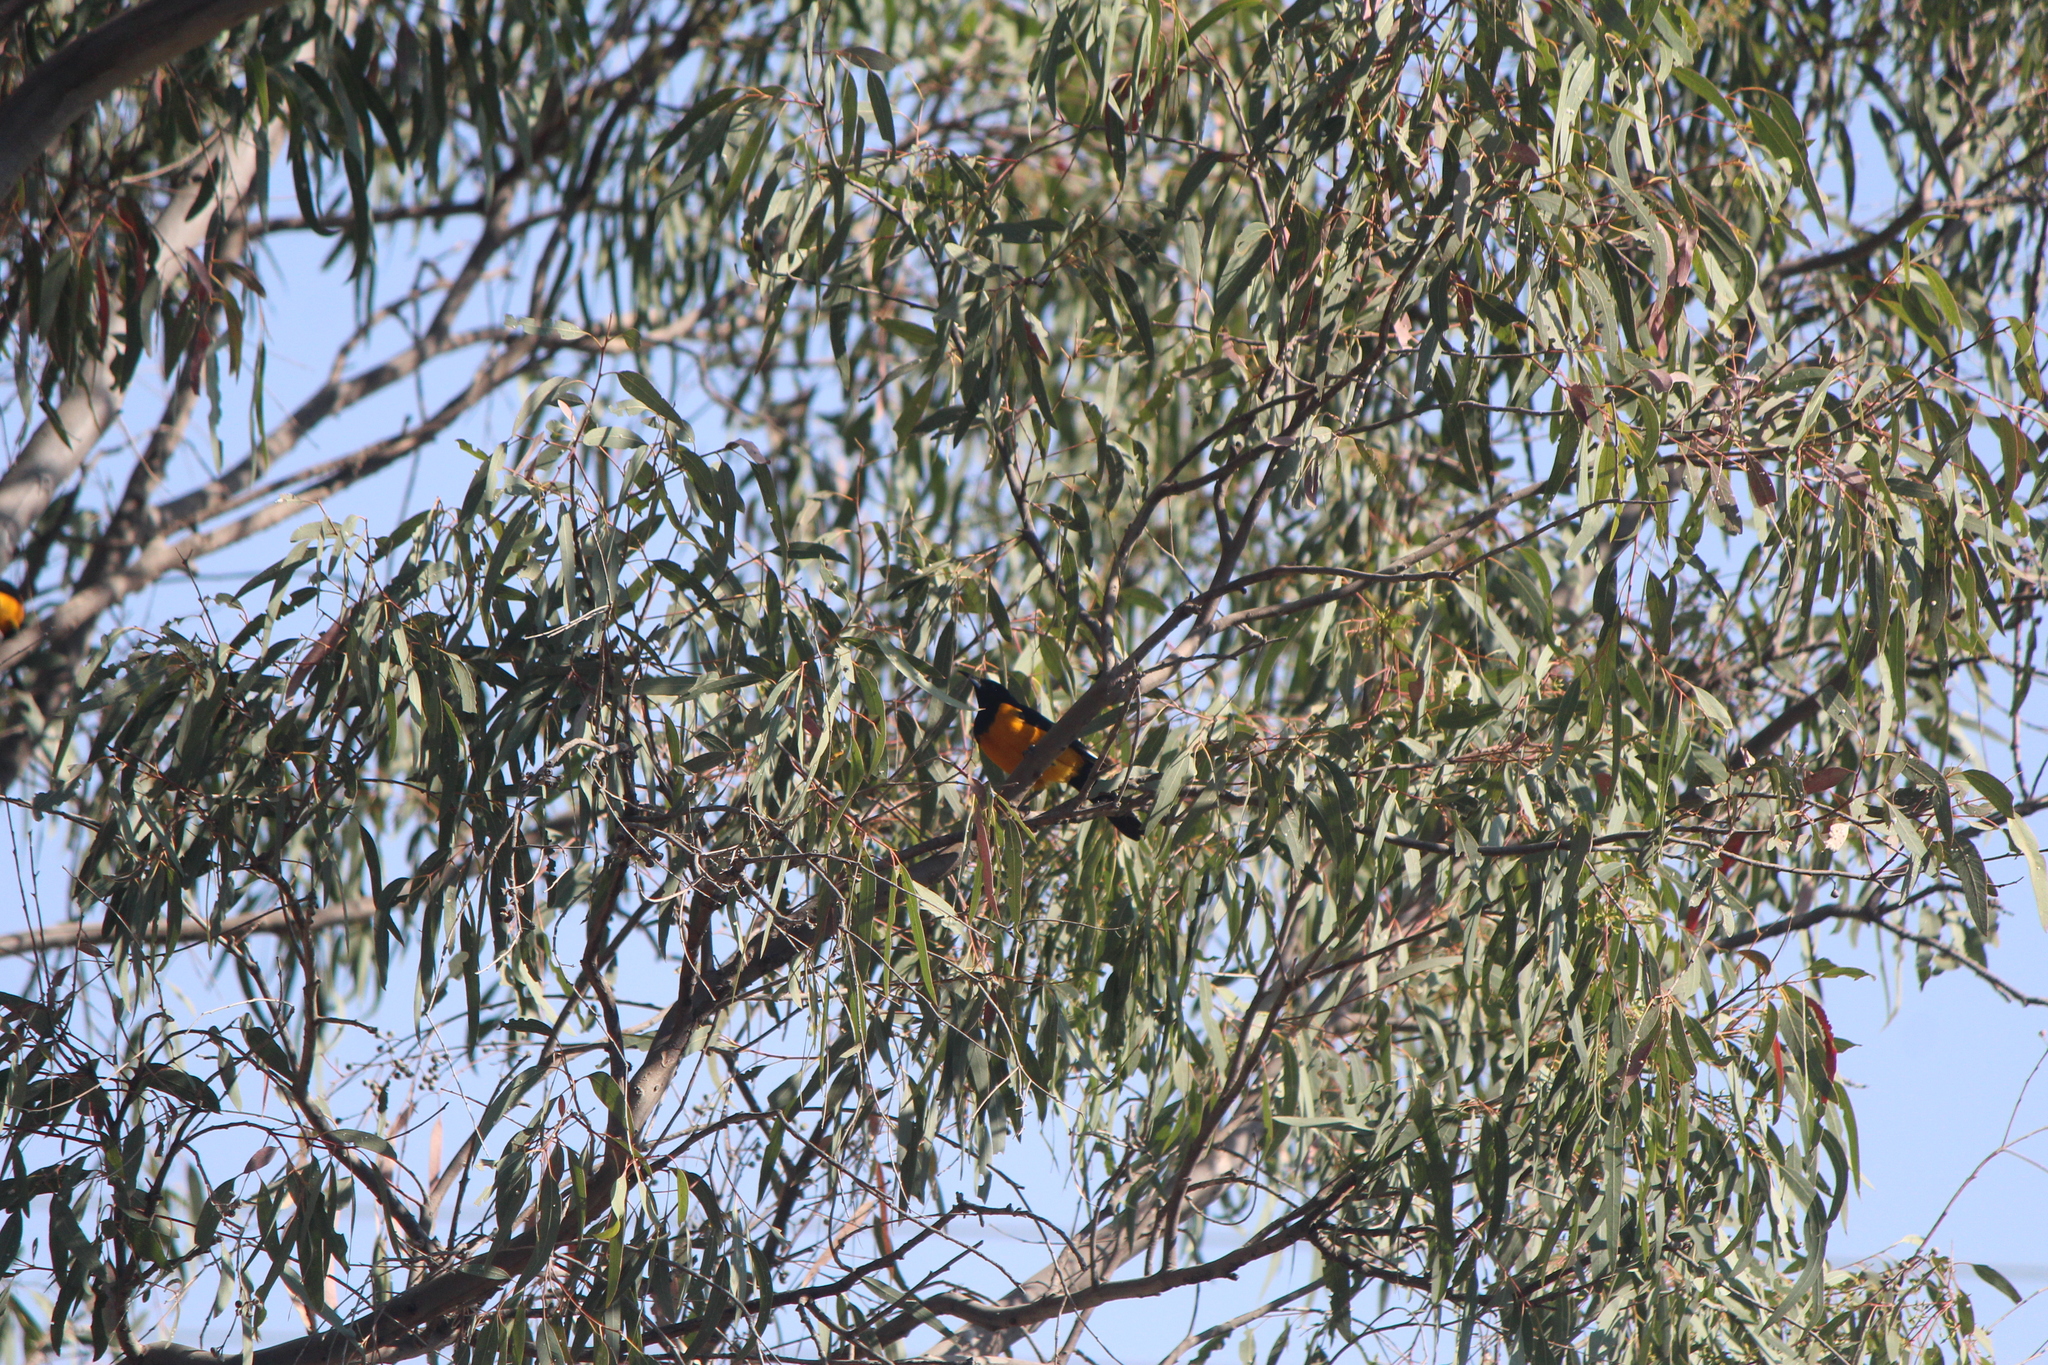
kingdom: Animalia
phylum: Chordata
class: Aves
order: Passeriformes
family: Icteridae
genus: Icterus
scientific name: Icterus wagleri
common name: Black-vented oriole
